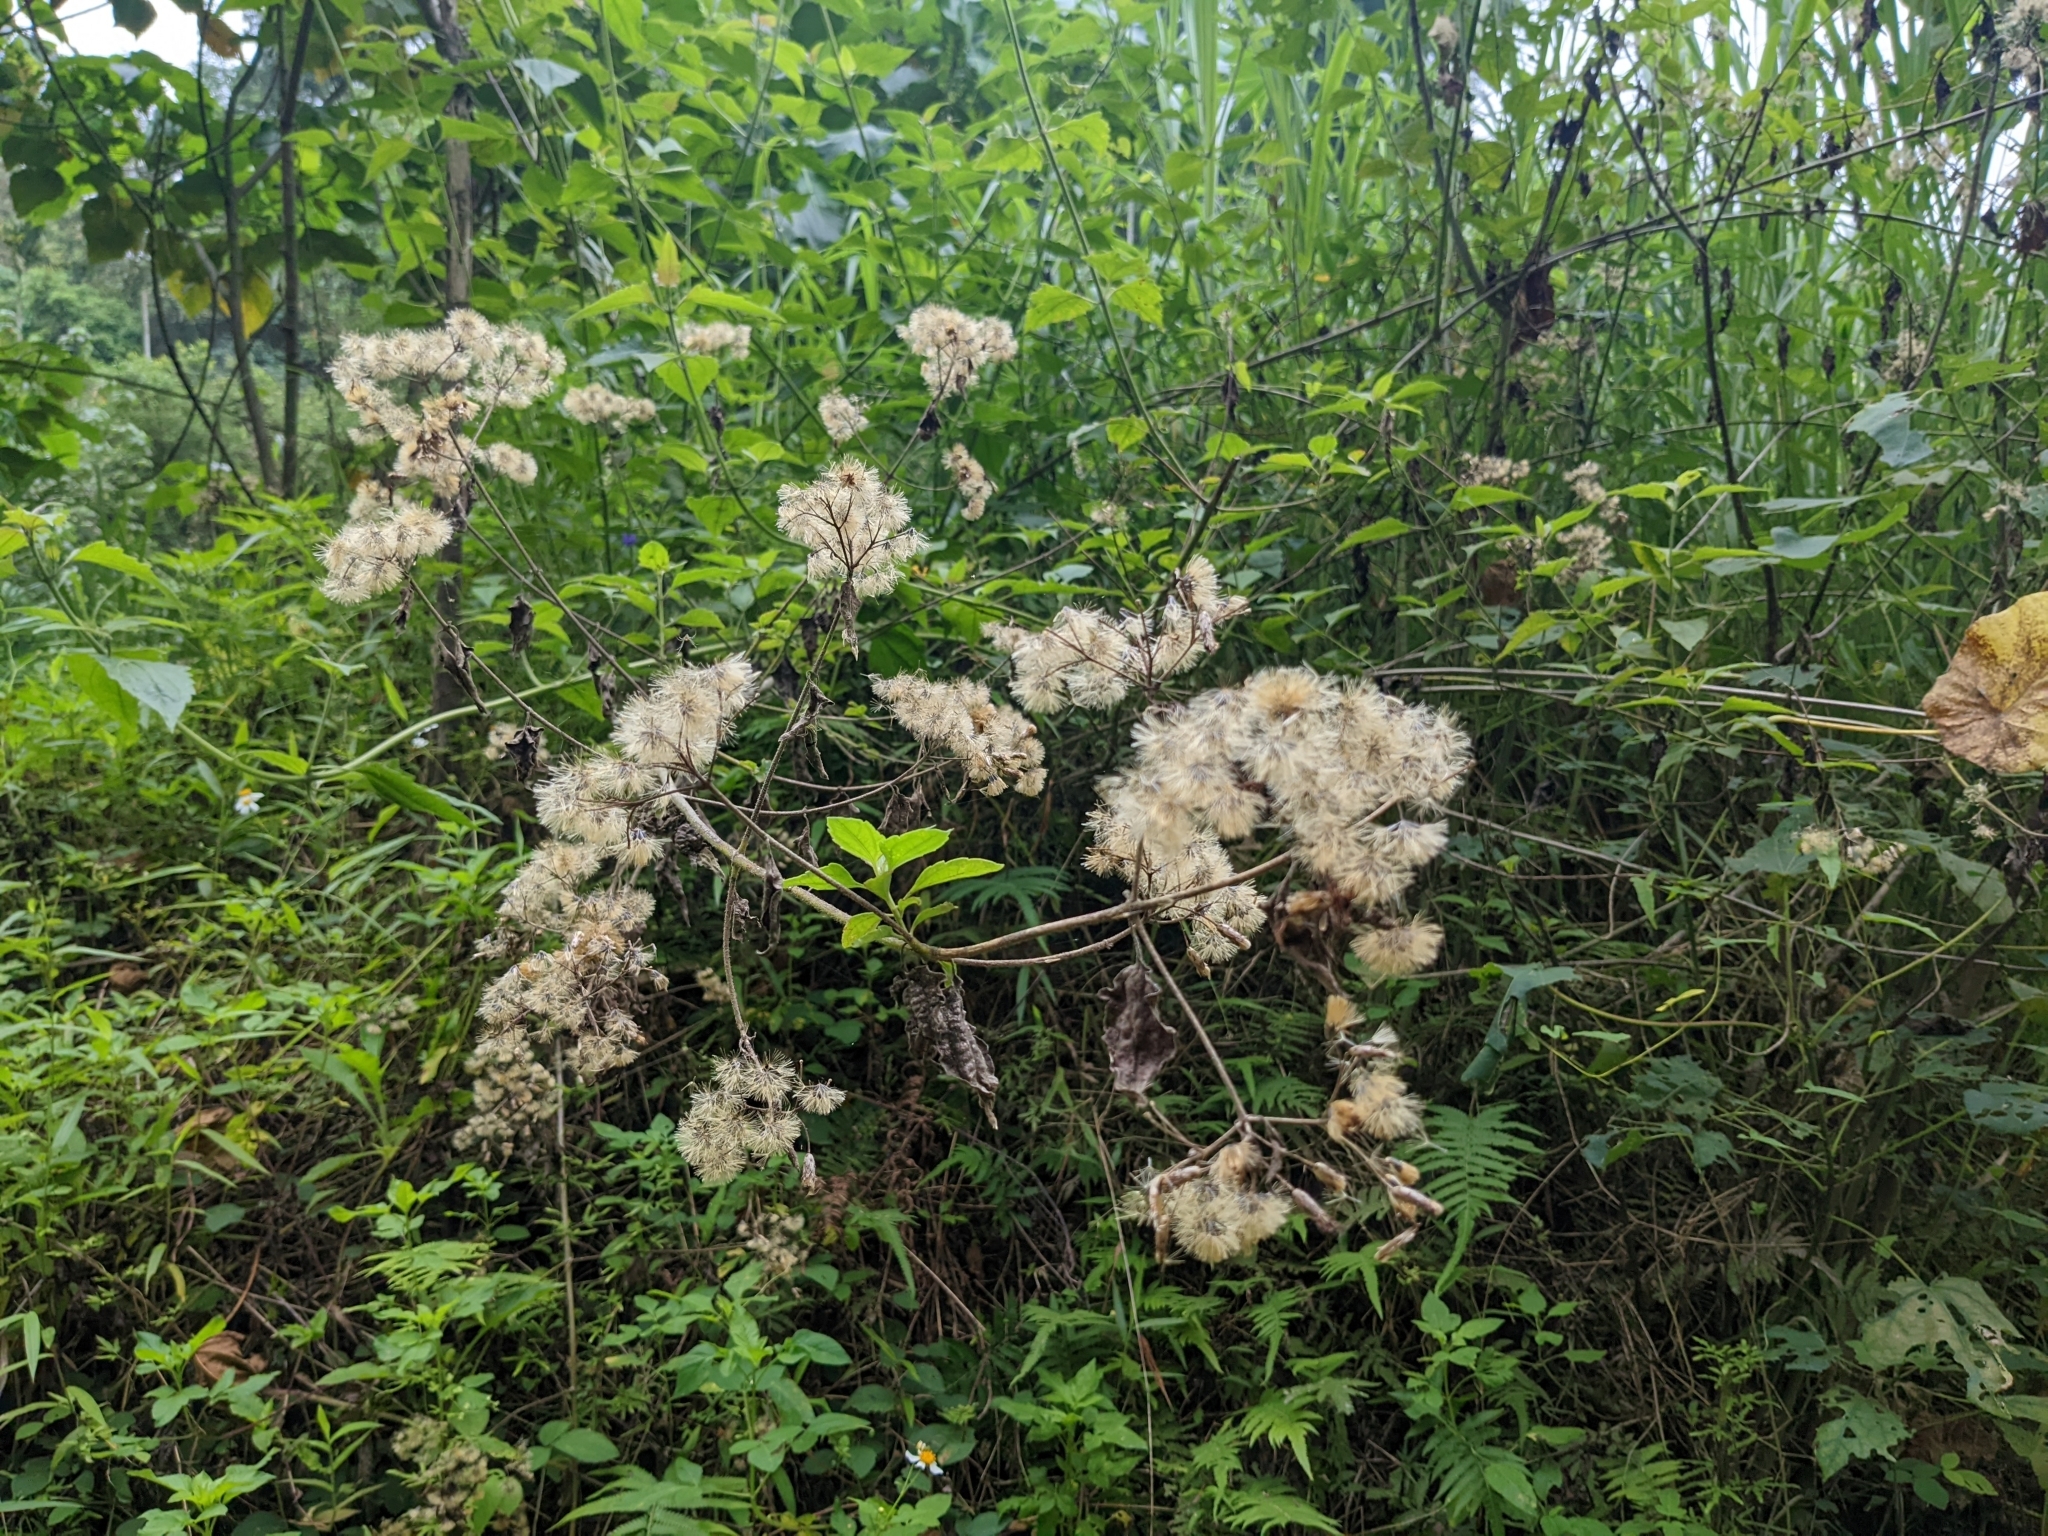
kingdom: Plantae
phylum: Tracheophyta
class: Magnoliopsida
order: Asterales
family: Asteraceae
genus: Chromolaena
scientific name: Chromolaena odorata
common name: Siamweed
